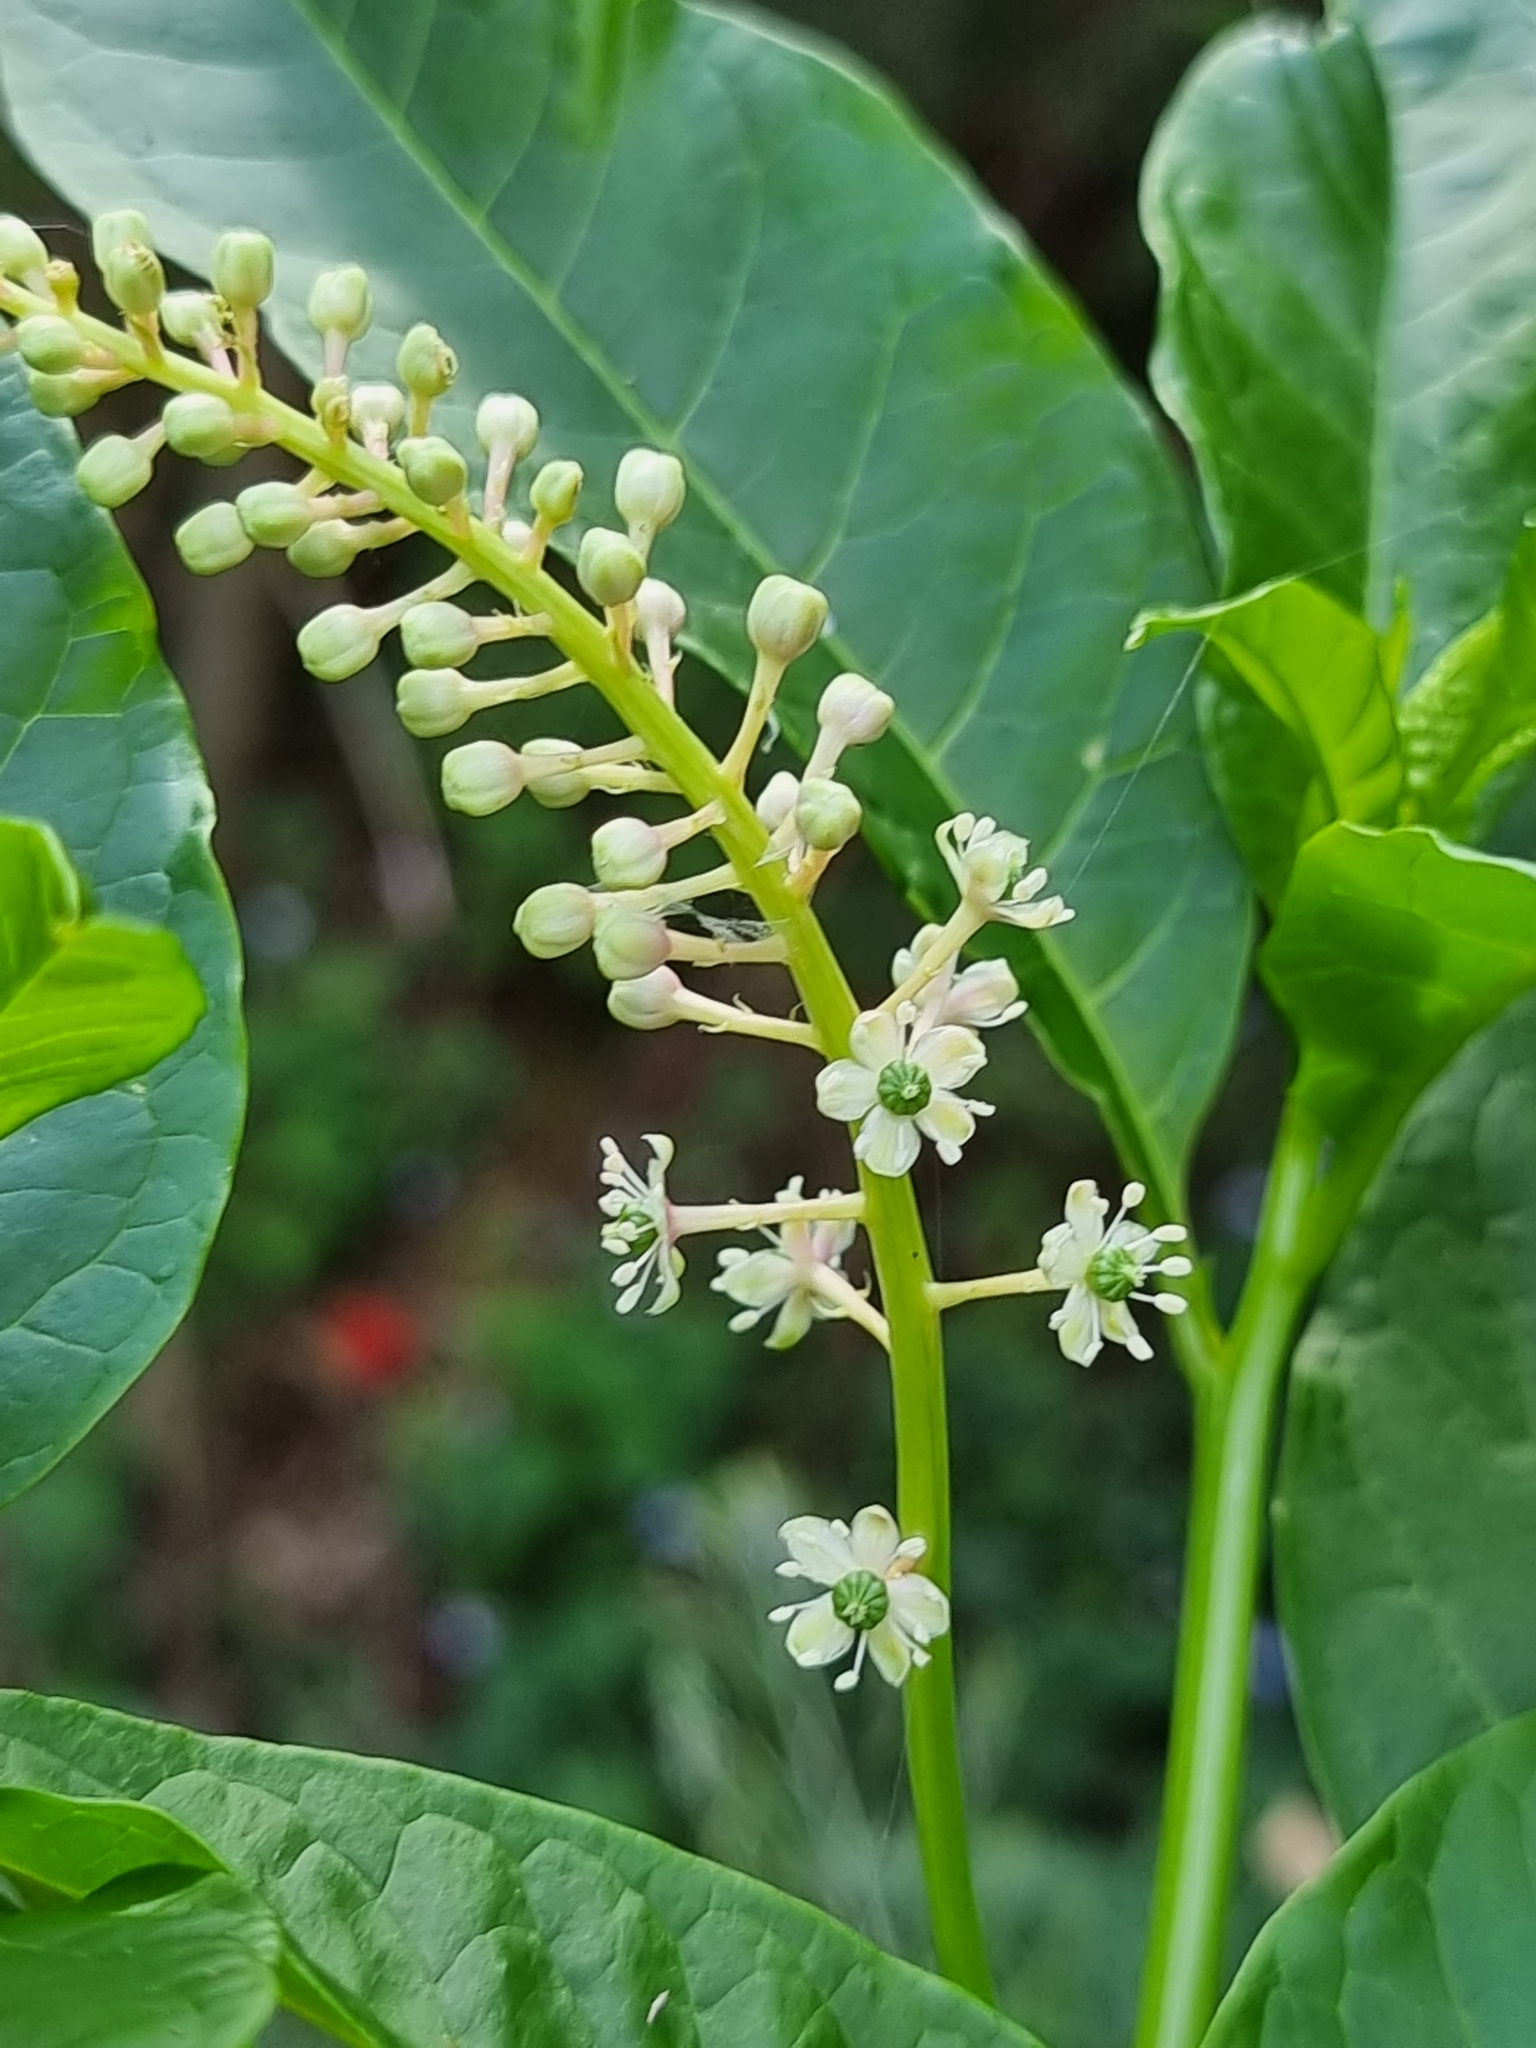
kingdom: Plantae
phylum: Tracheophyta
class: Magnoliopsida
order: Caryophyllales
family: Phytolaccaceae
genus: Phytolacca
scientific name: Phytolacca americana
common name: American pokeweed
